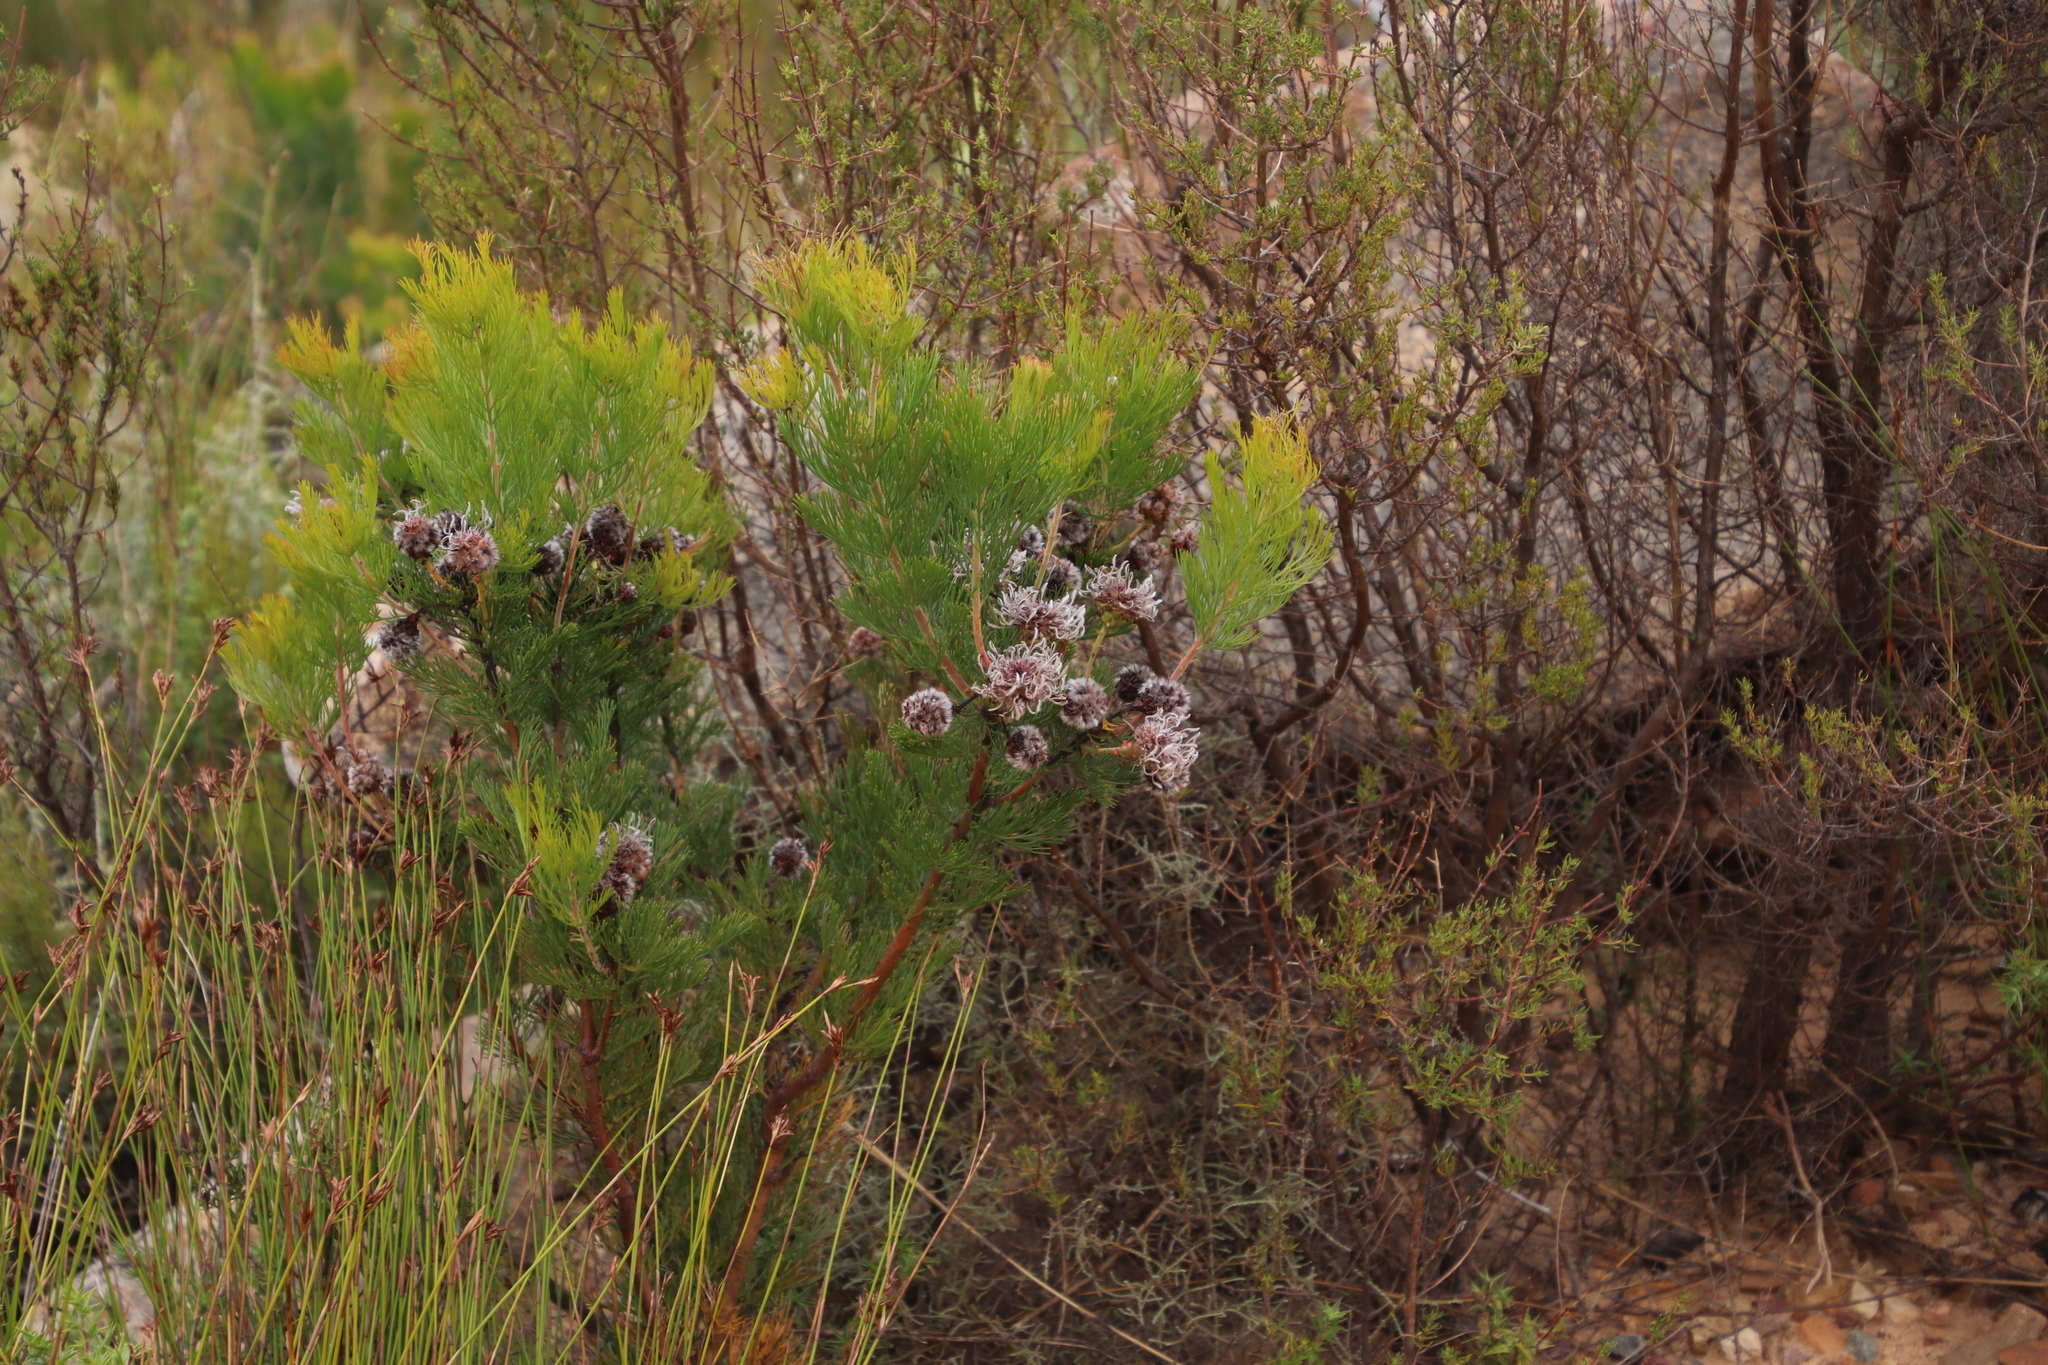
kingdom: Plantae
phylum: Tracheophyta
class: Magnoliopsida
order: Proteales
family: Proteaceae
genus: Serruria
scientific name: Serruria acrocarpa
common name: Common rootstock spiderhead
